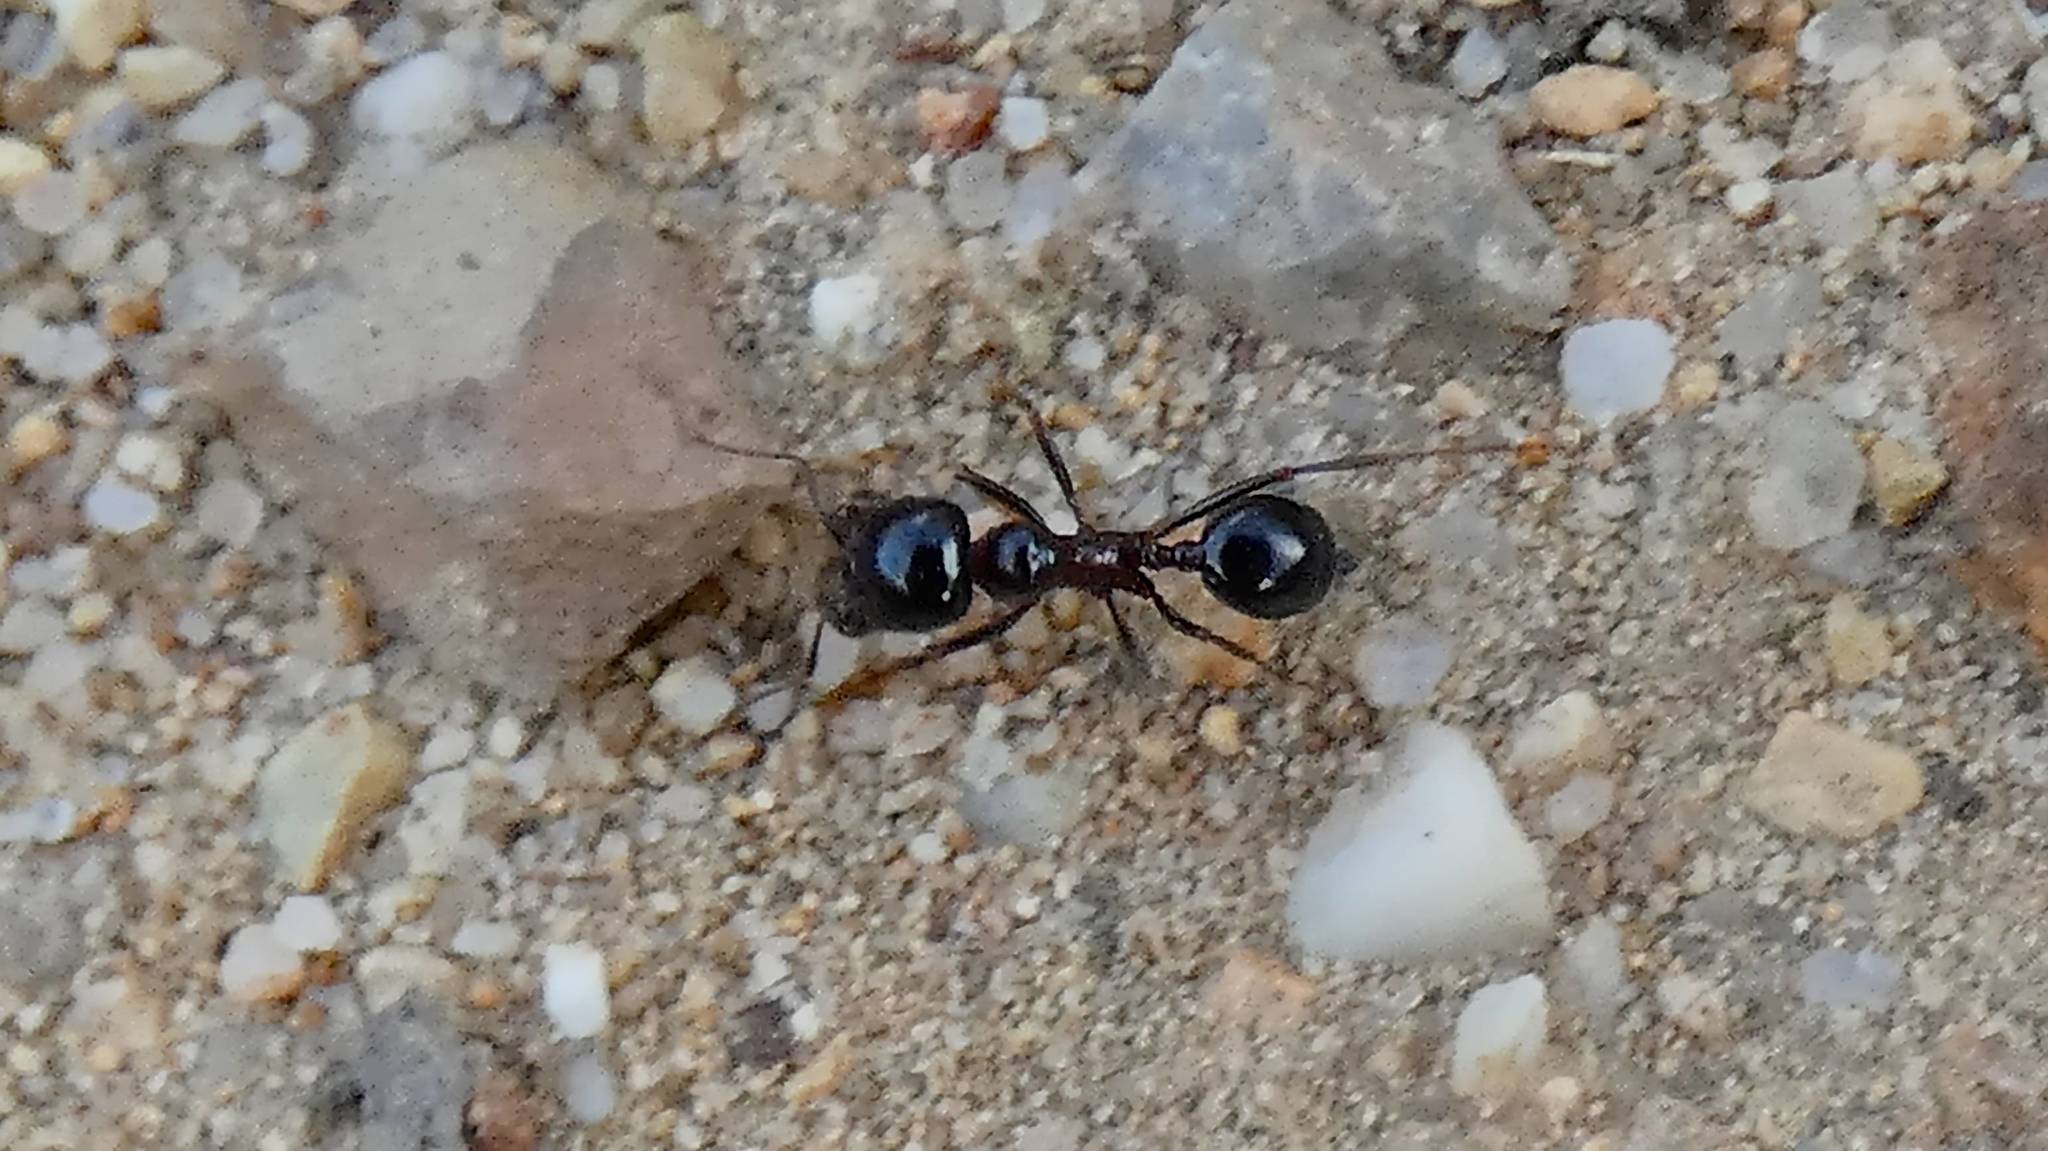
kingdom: Animalia
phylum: Arthropoda
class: Insecta
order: Hymenoptera
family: Formicidae
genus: Messor
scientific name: Messor wasmanni
